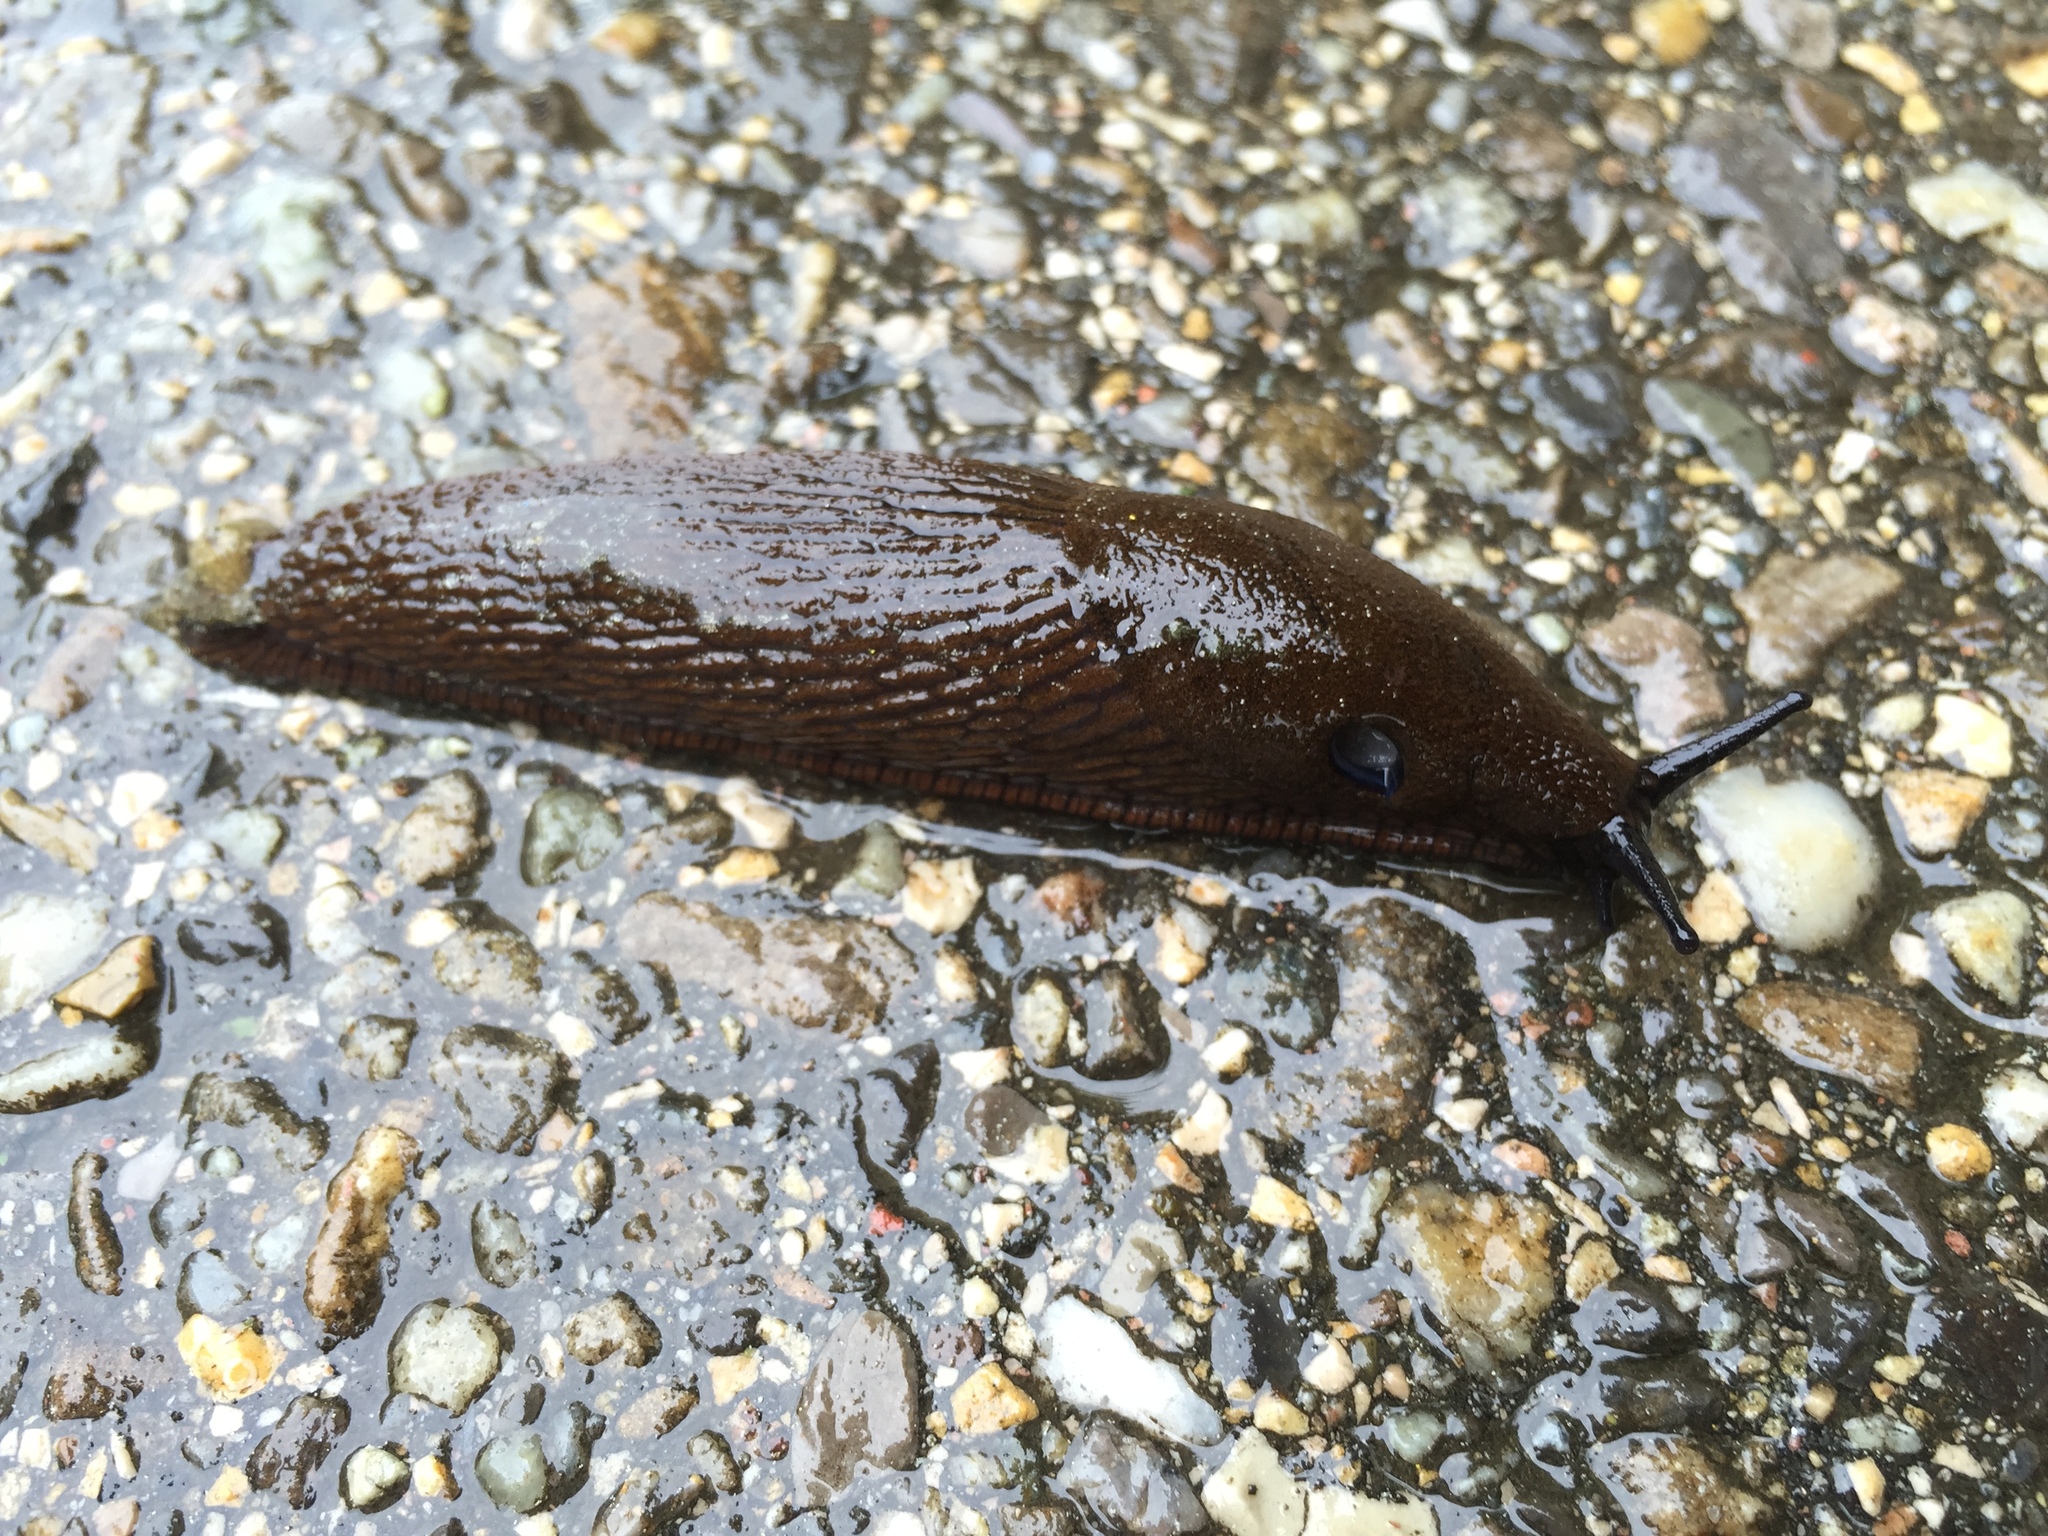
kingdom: Animalia
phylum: Mollusca
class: Gastropoda
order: Stylommatophora
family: Arionidae
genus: Arion
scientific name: Arion ater
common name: Black arion
